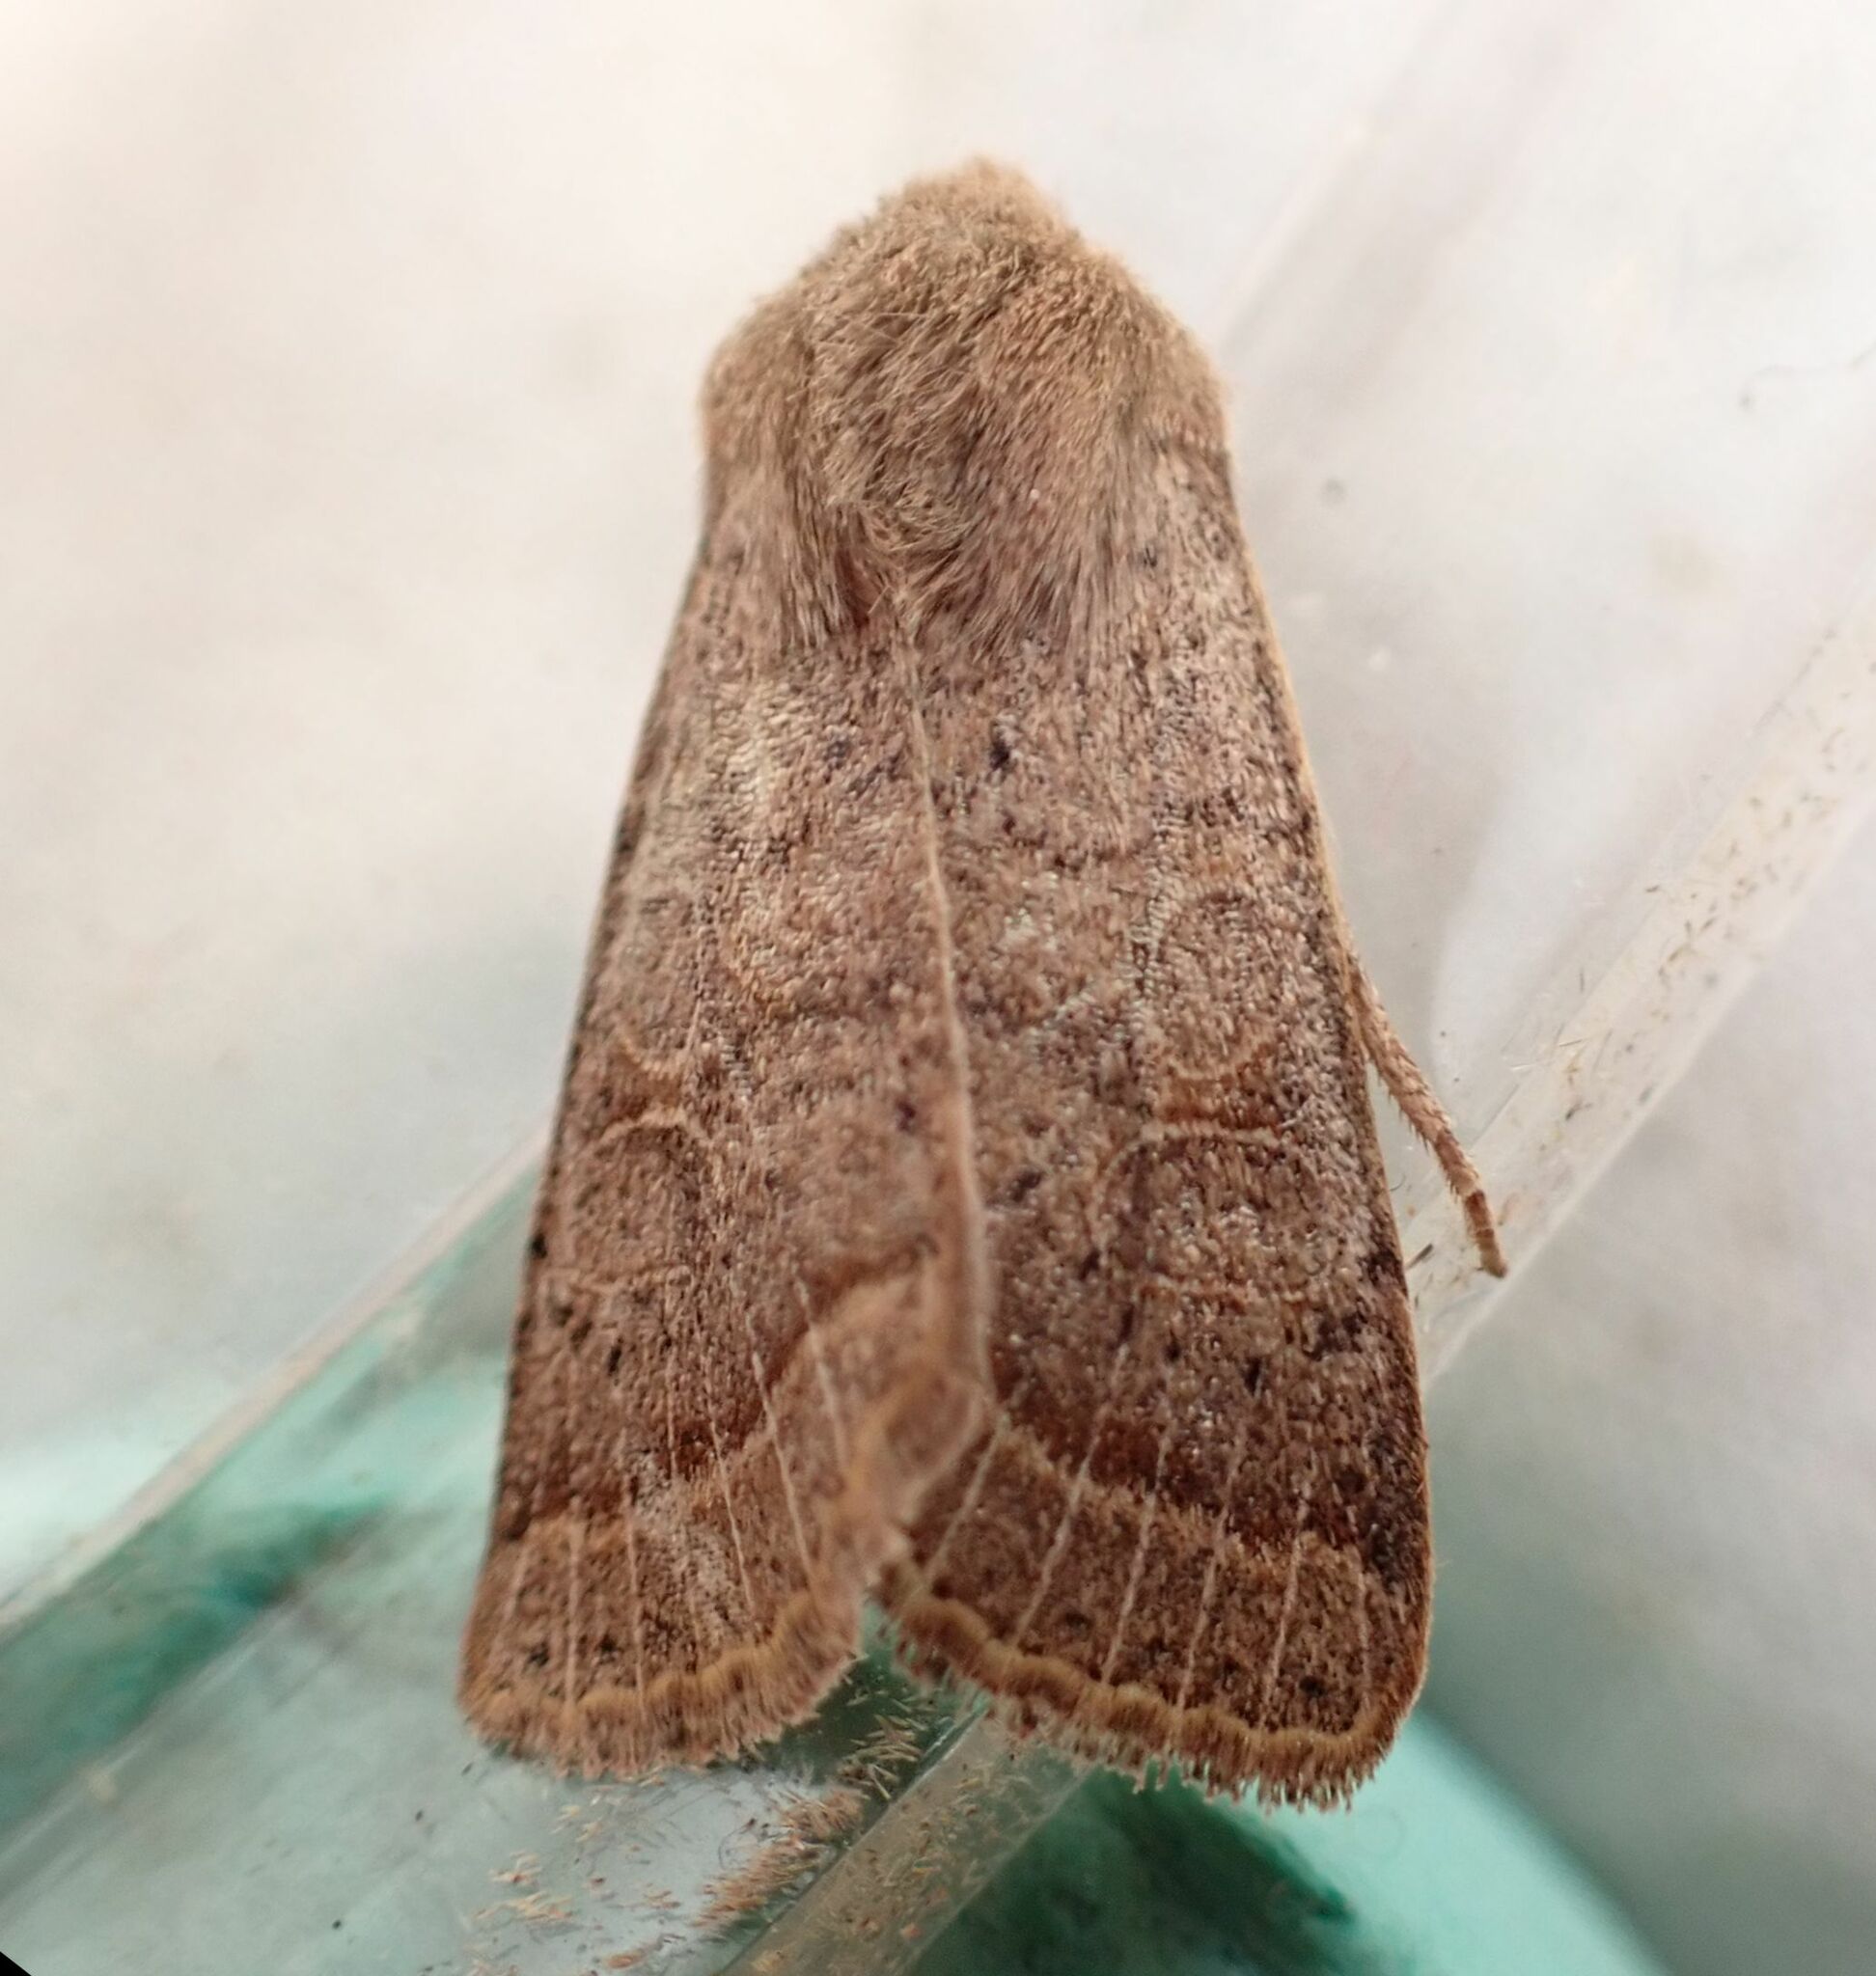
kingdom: Animalia
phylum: Arthropoda
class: Insecta
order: Lepidoptera
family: Noctuidae
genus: Orthosia
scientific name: Orthosia cerasi
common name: Common quaker
